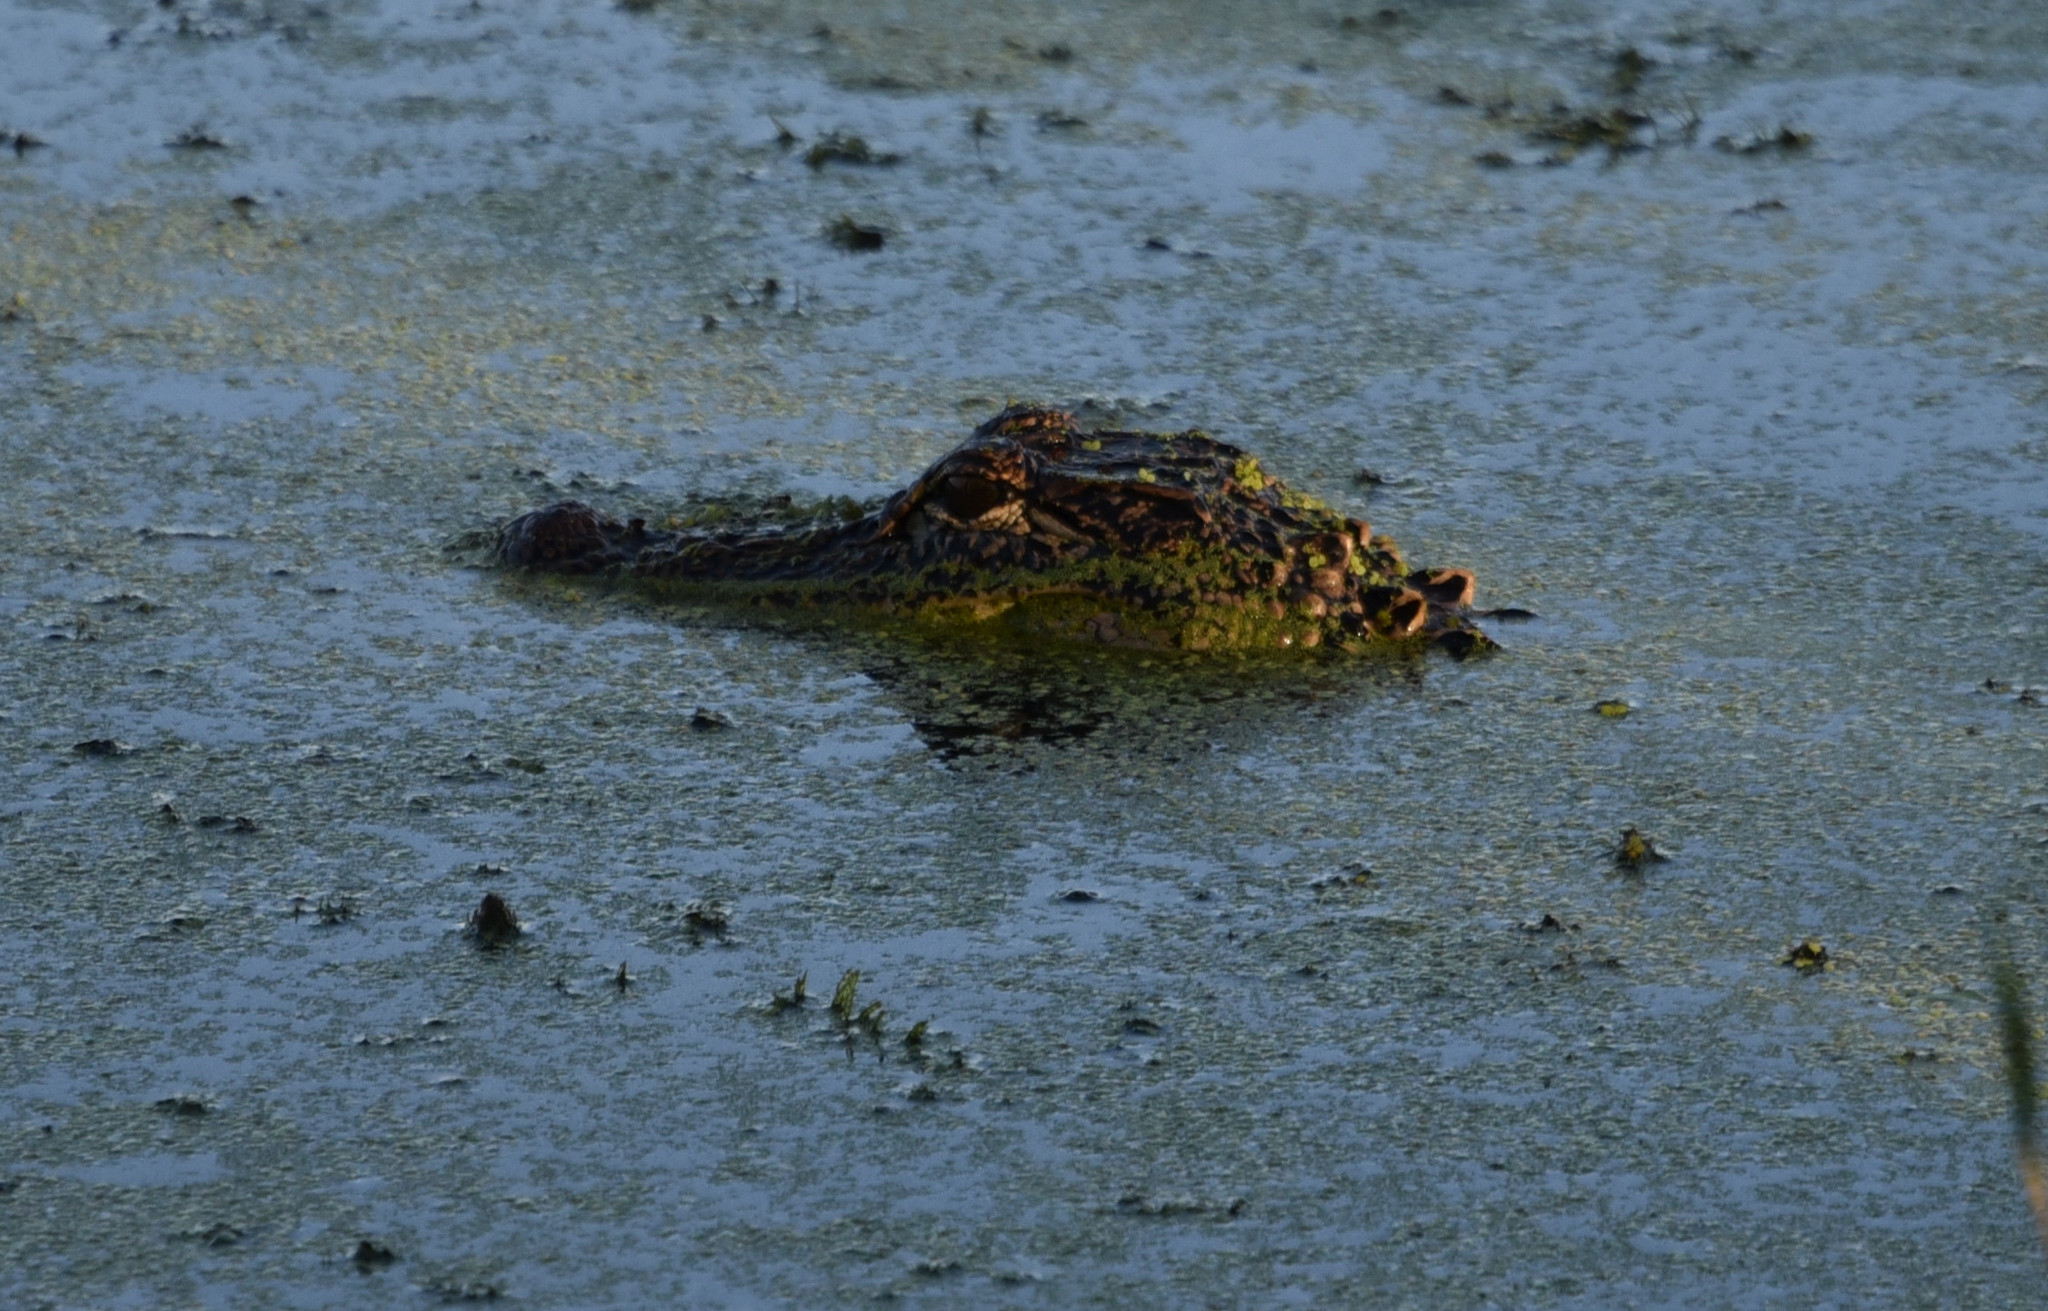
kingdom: Animalia
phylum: Chordata
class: Crocodylia
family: Alligatoridae
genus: Alligator
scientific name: Alligator mississippiensis
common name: American alligator
